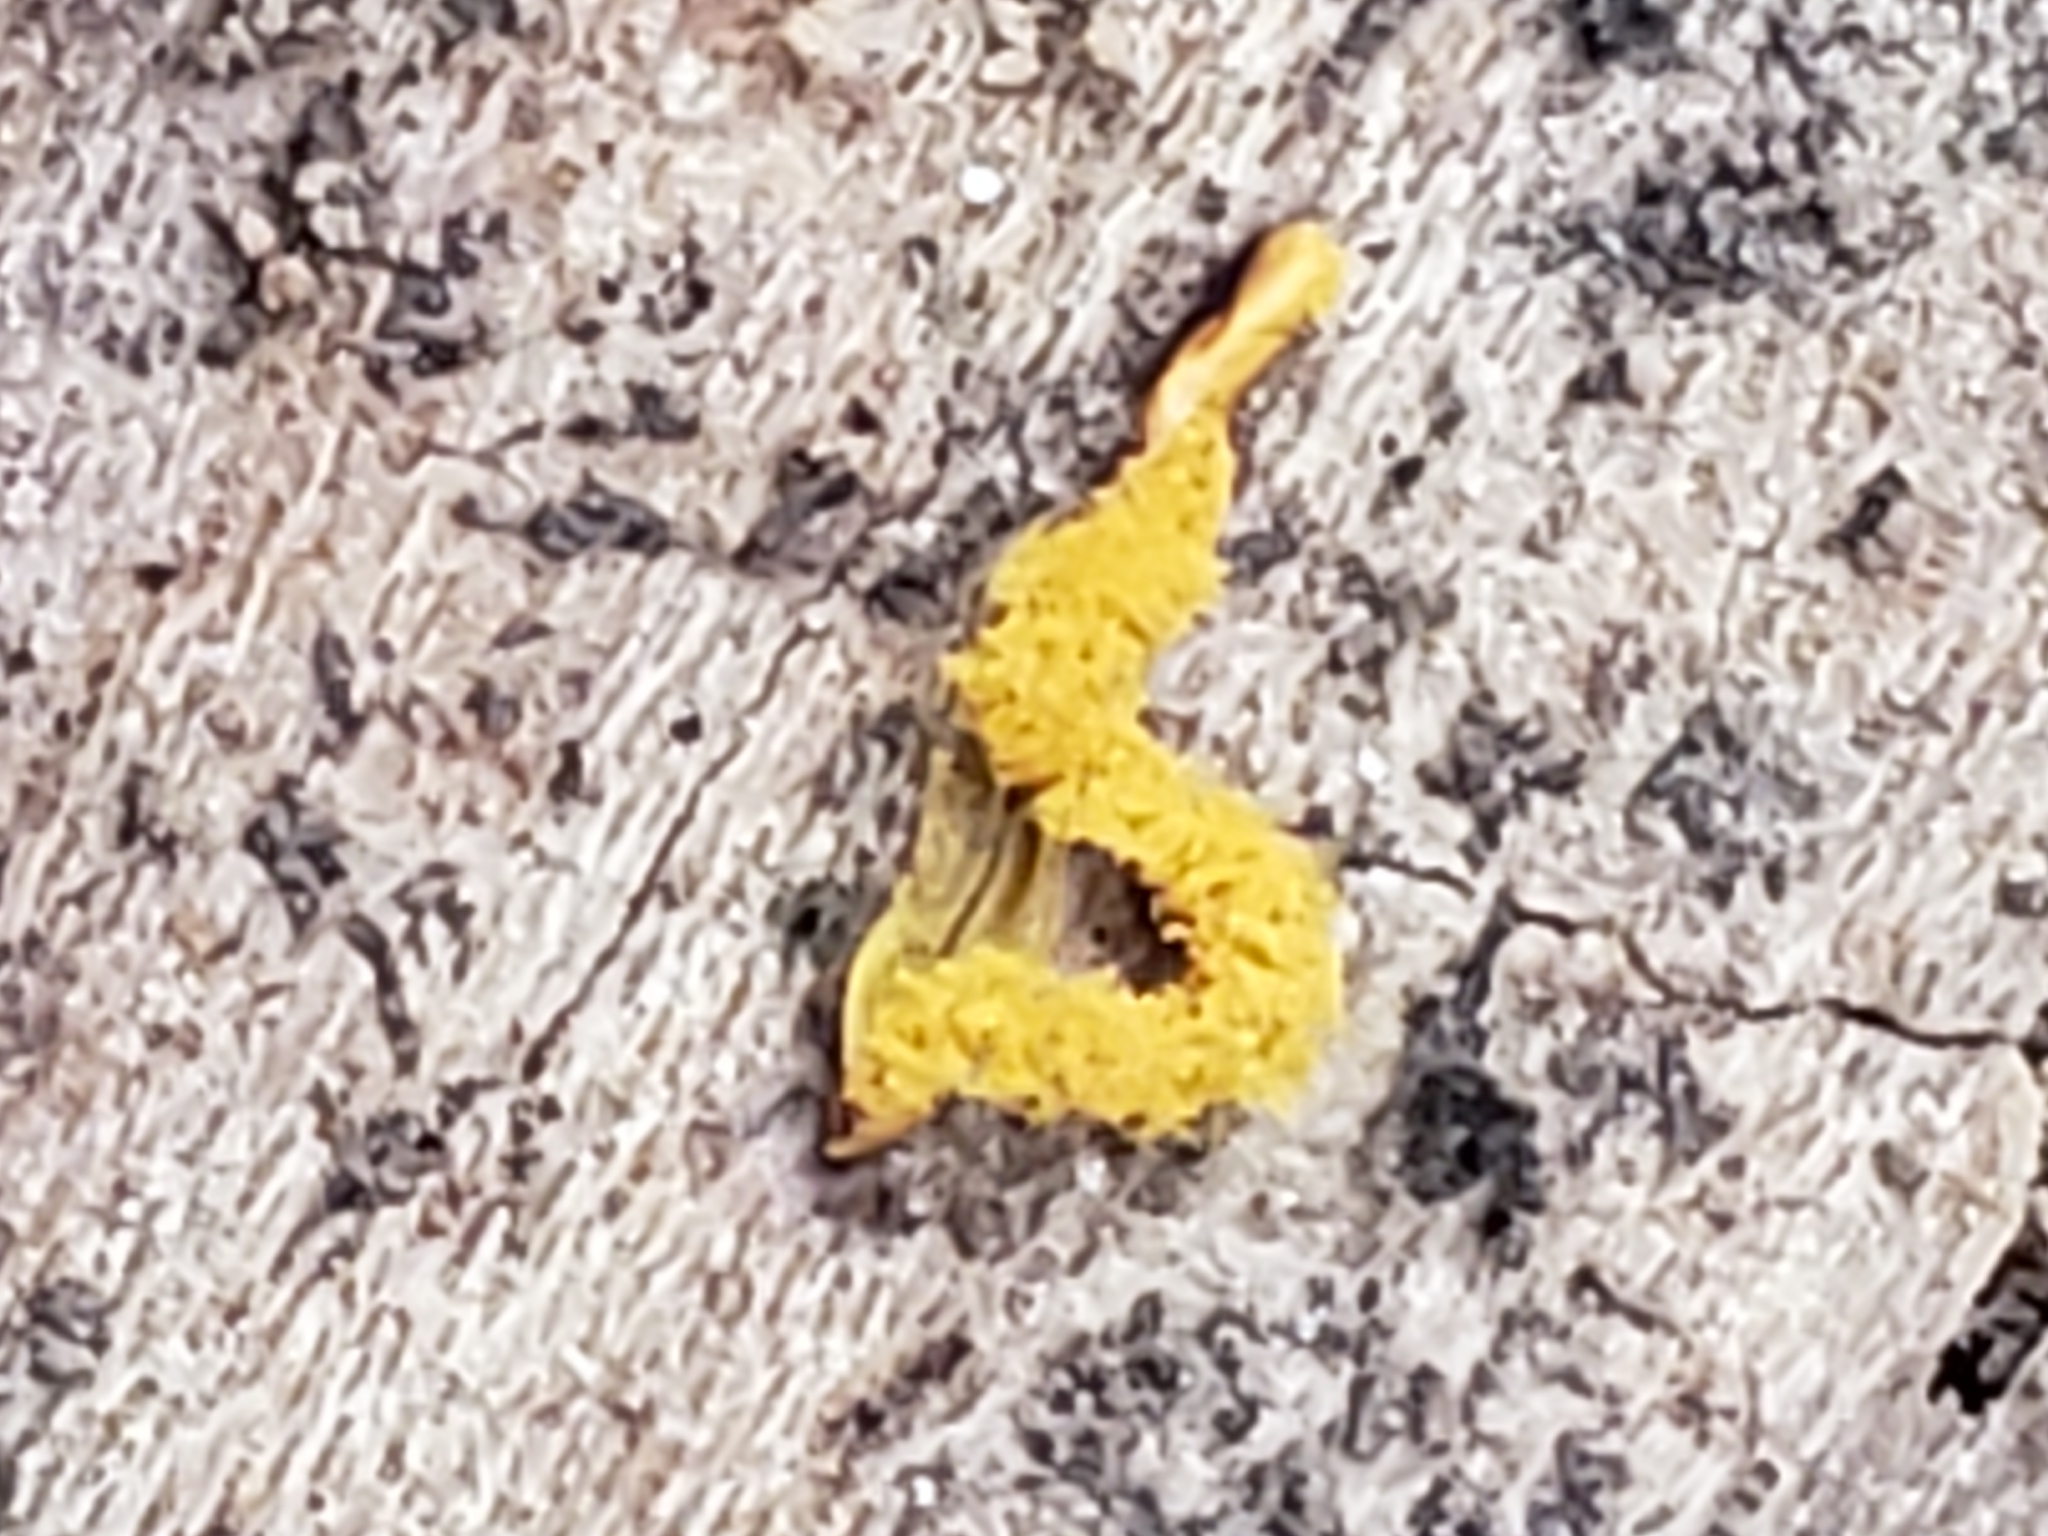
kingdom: Protozoa
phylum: Mycetozoa
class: Myxomycetes
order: Trichiales
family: Arcyriaceae
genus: Hemitrichia
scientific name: Hemitrichia serpula
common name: Pretzel slime mold
